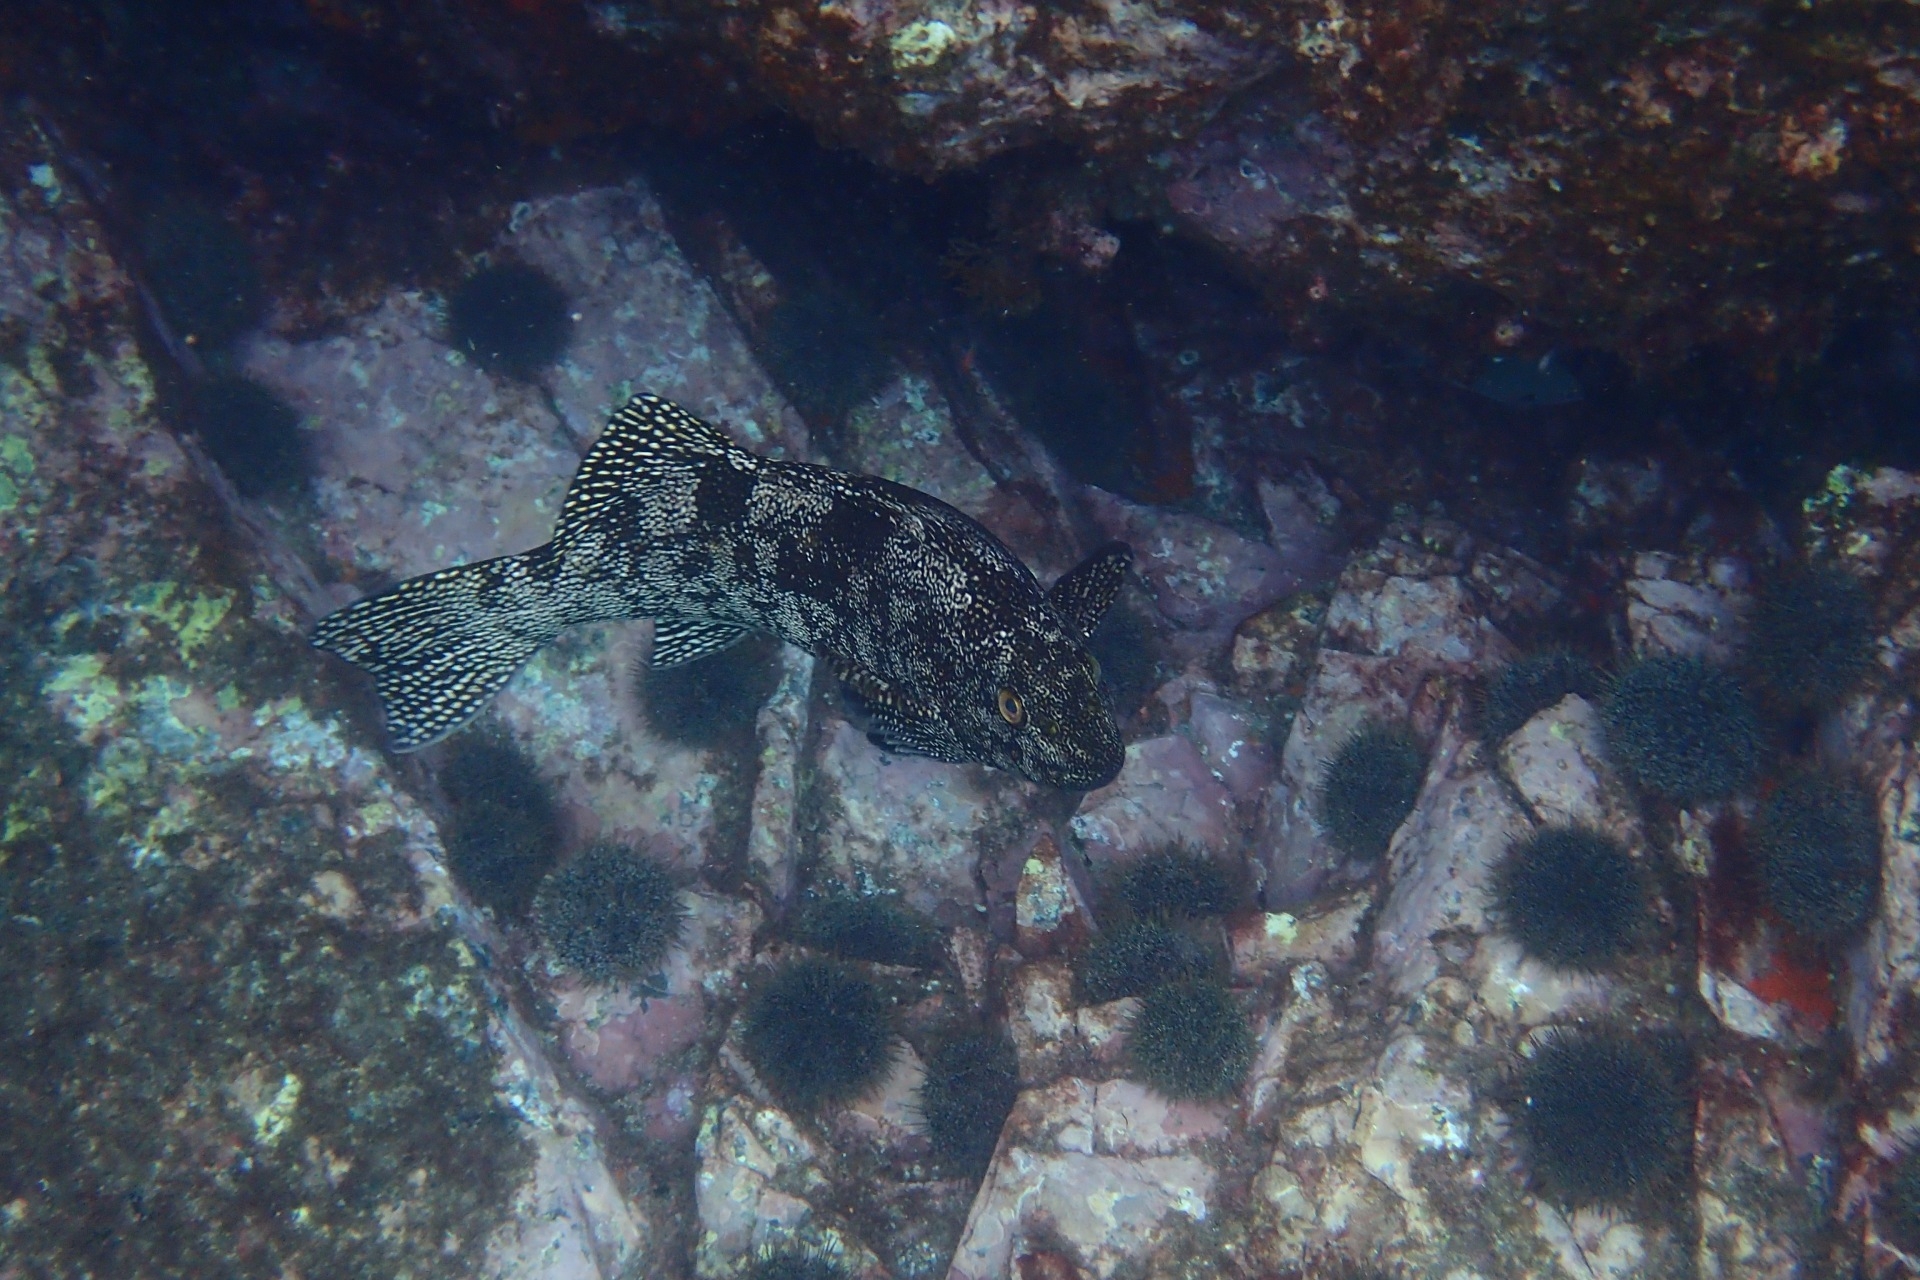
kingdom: Animalia
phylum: Chordata
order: Perciformes
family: Aplodactylidae
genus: Aplodactylus
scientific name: Aplodactylus arctidens
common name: Marblefish
